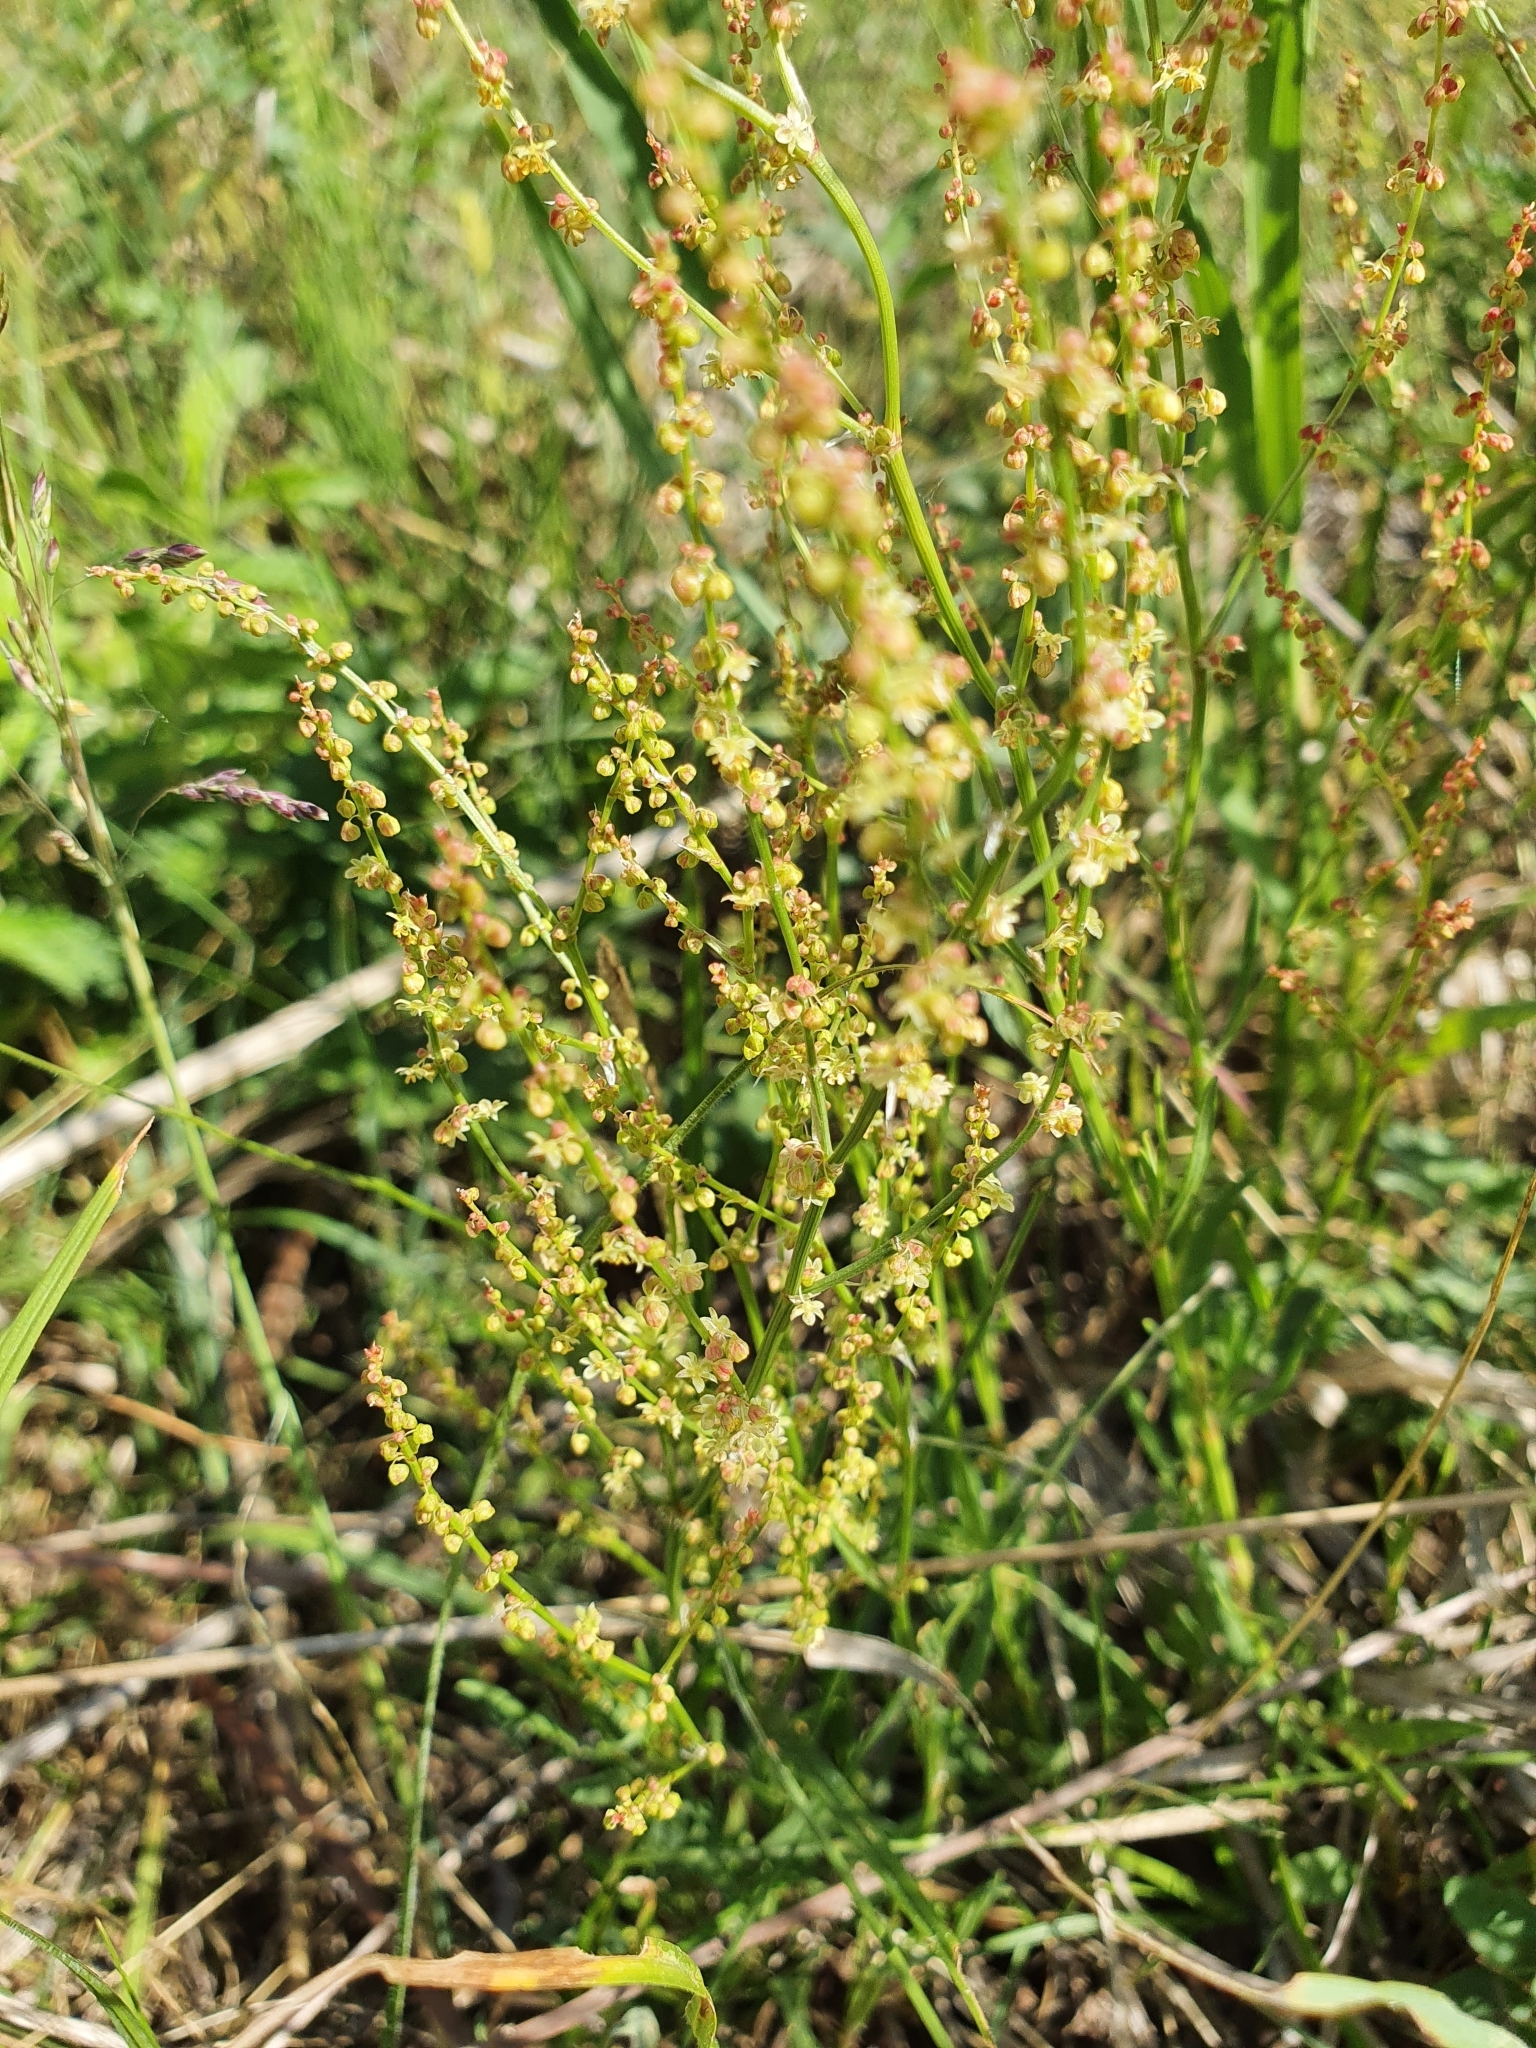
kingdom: Plantae
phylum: Tracheophyta
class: Magnoliopsida
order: Caryophyllales
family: Polygonaceae
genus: Rumex
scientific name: Rumex acetosella
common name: Common sheep sorrel
